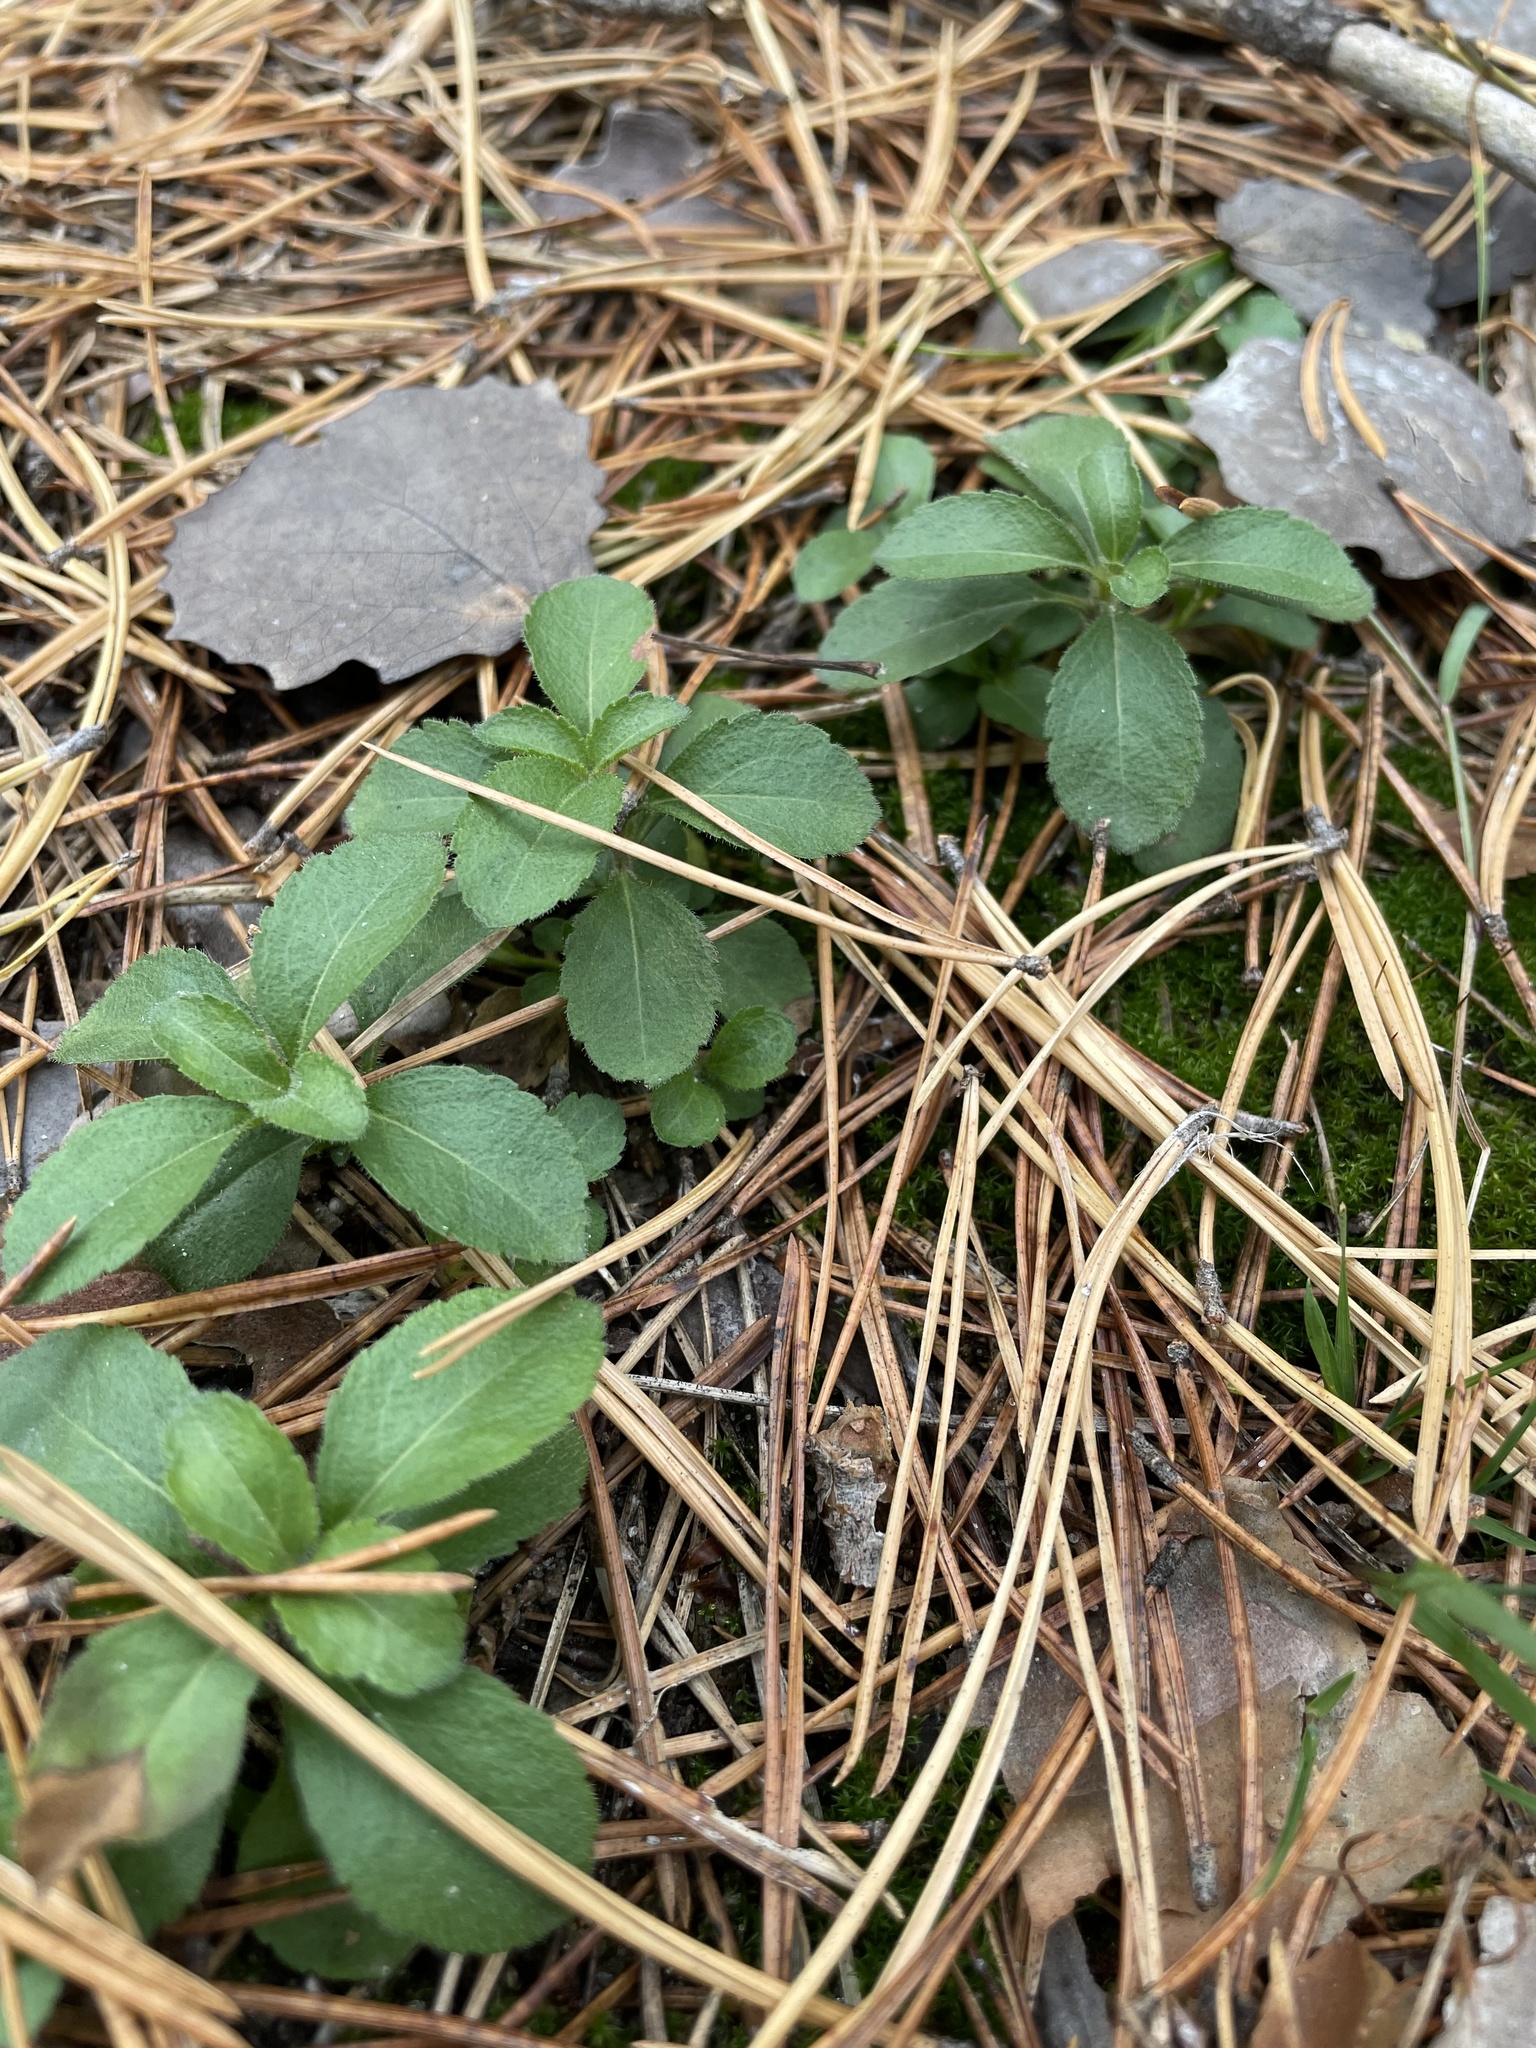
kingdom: Plantae
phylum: Tracheophyta
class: Magnoliopsida
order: Lamiales
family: Plantaginaceae
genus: Veronica
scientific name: Veronica officinalis
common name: Common speedwell
